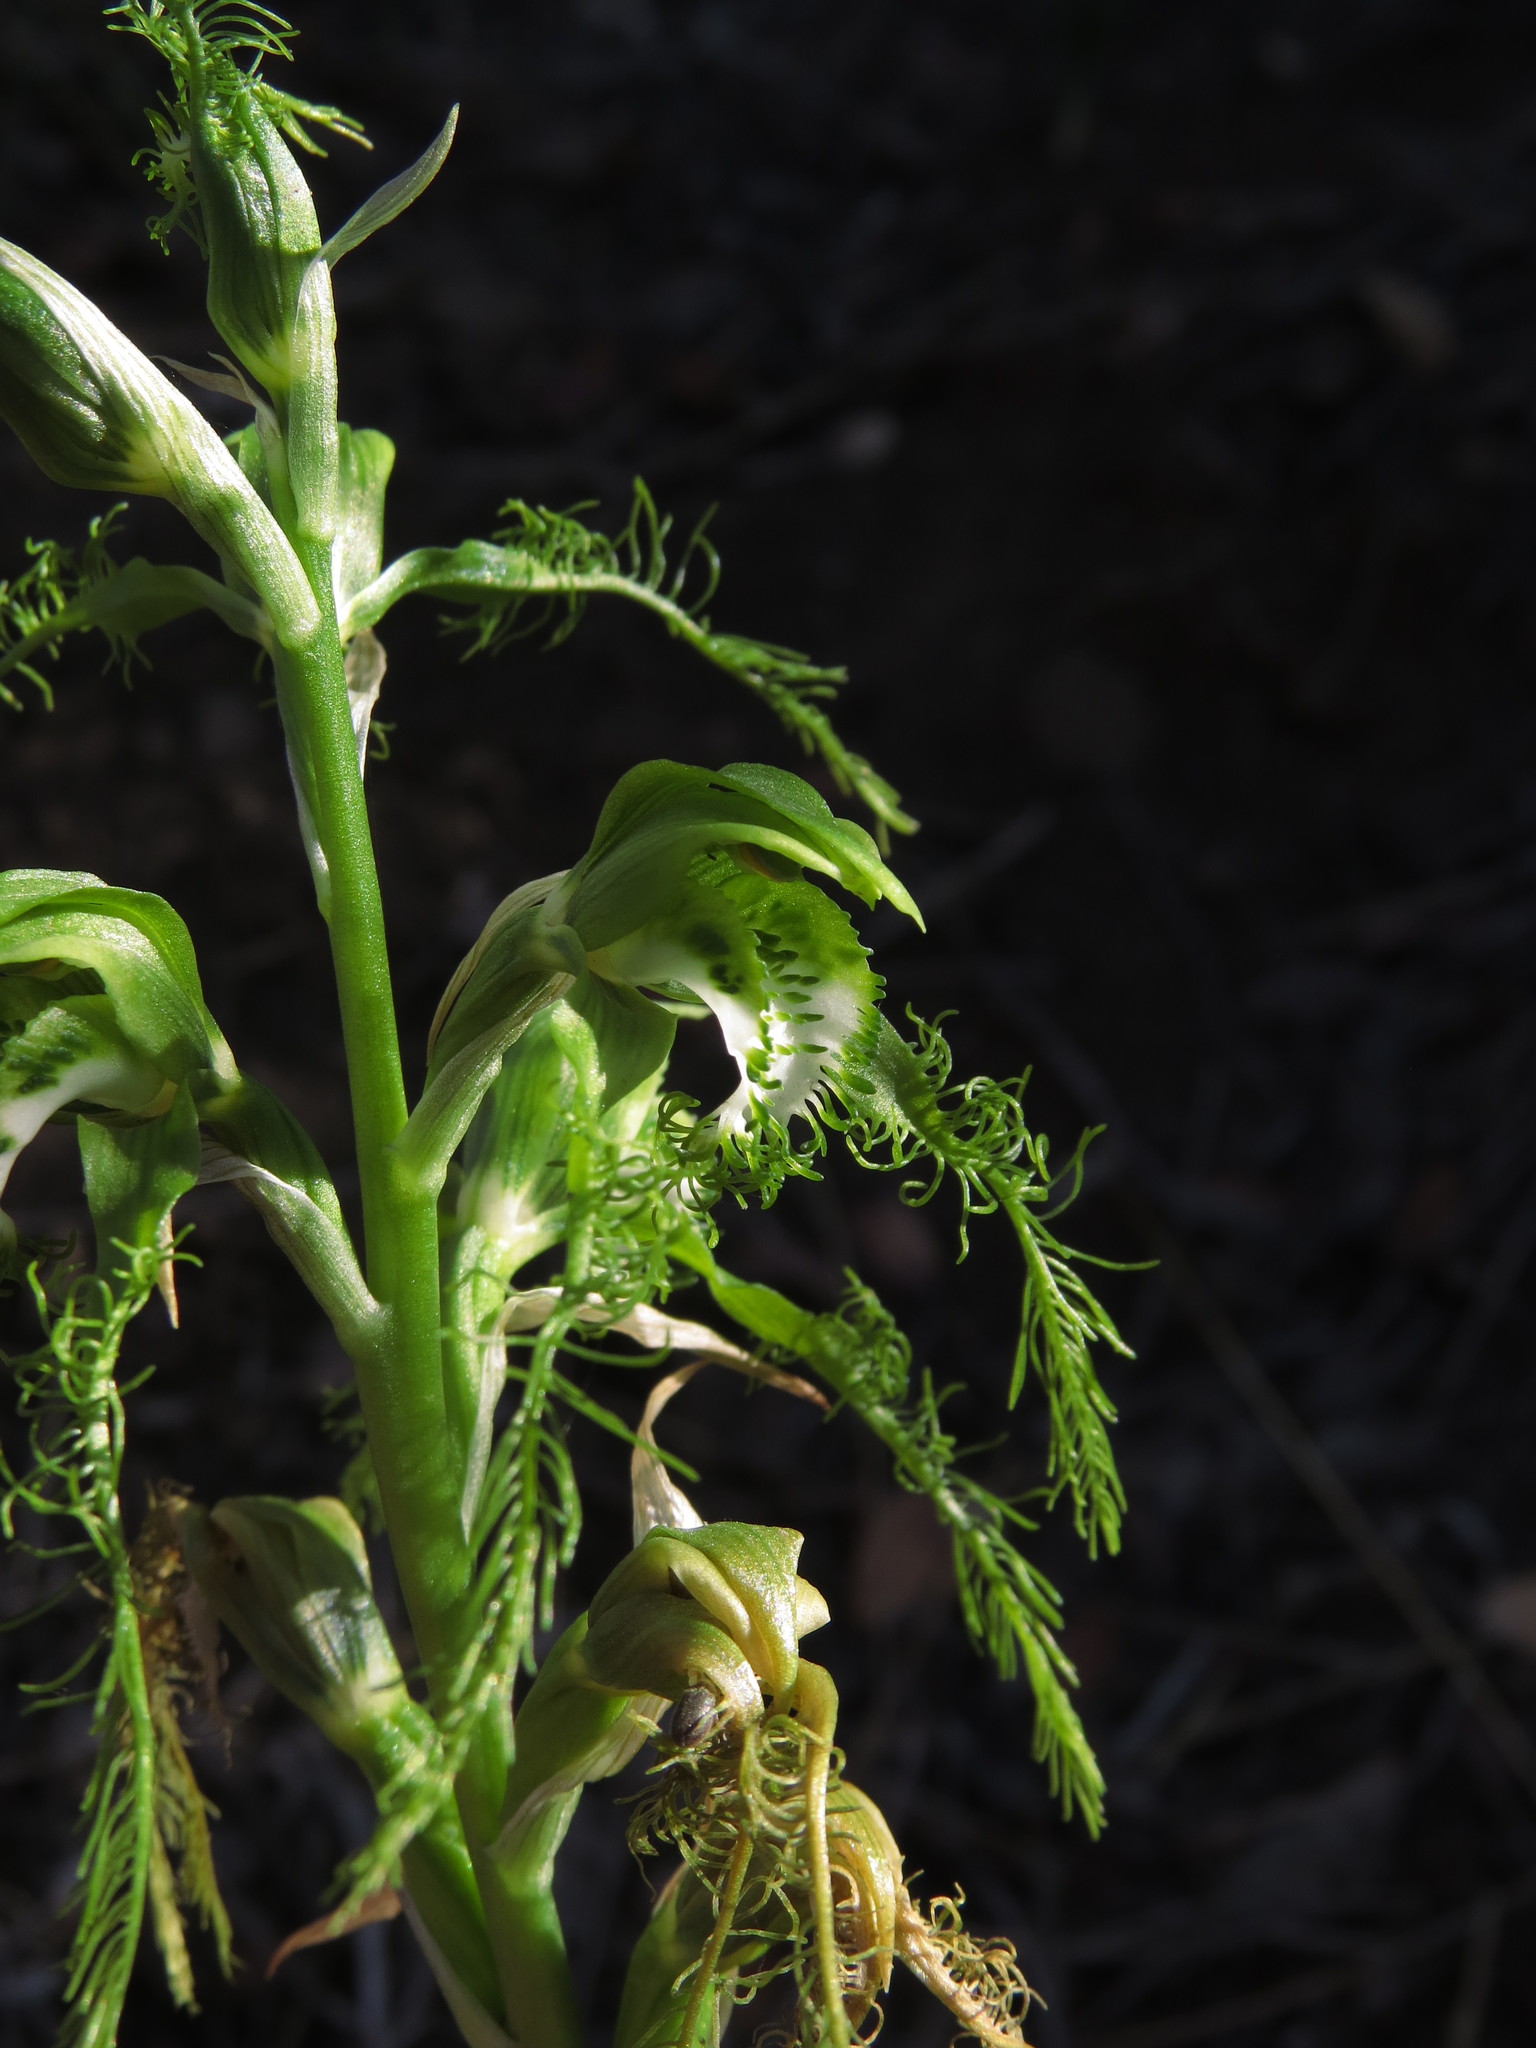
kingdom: Plantae
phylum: Tracheophyta
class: Liliopsida
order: Asparagales
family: Orchidaceae
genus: Bipinnula
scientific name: Bipinnula plumosa
